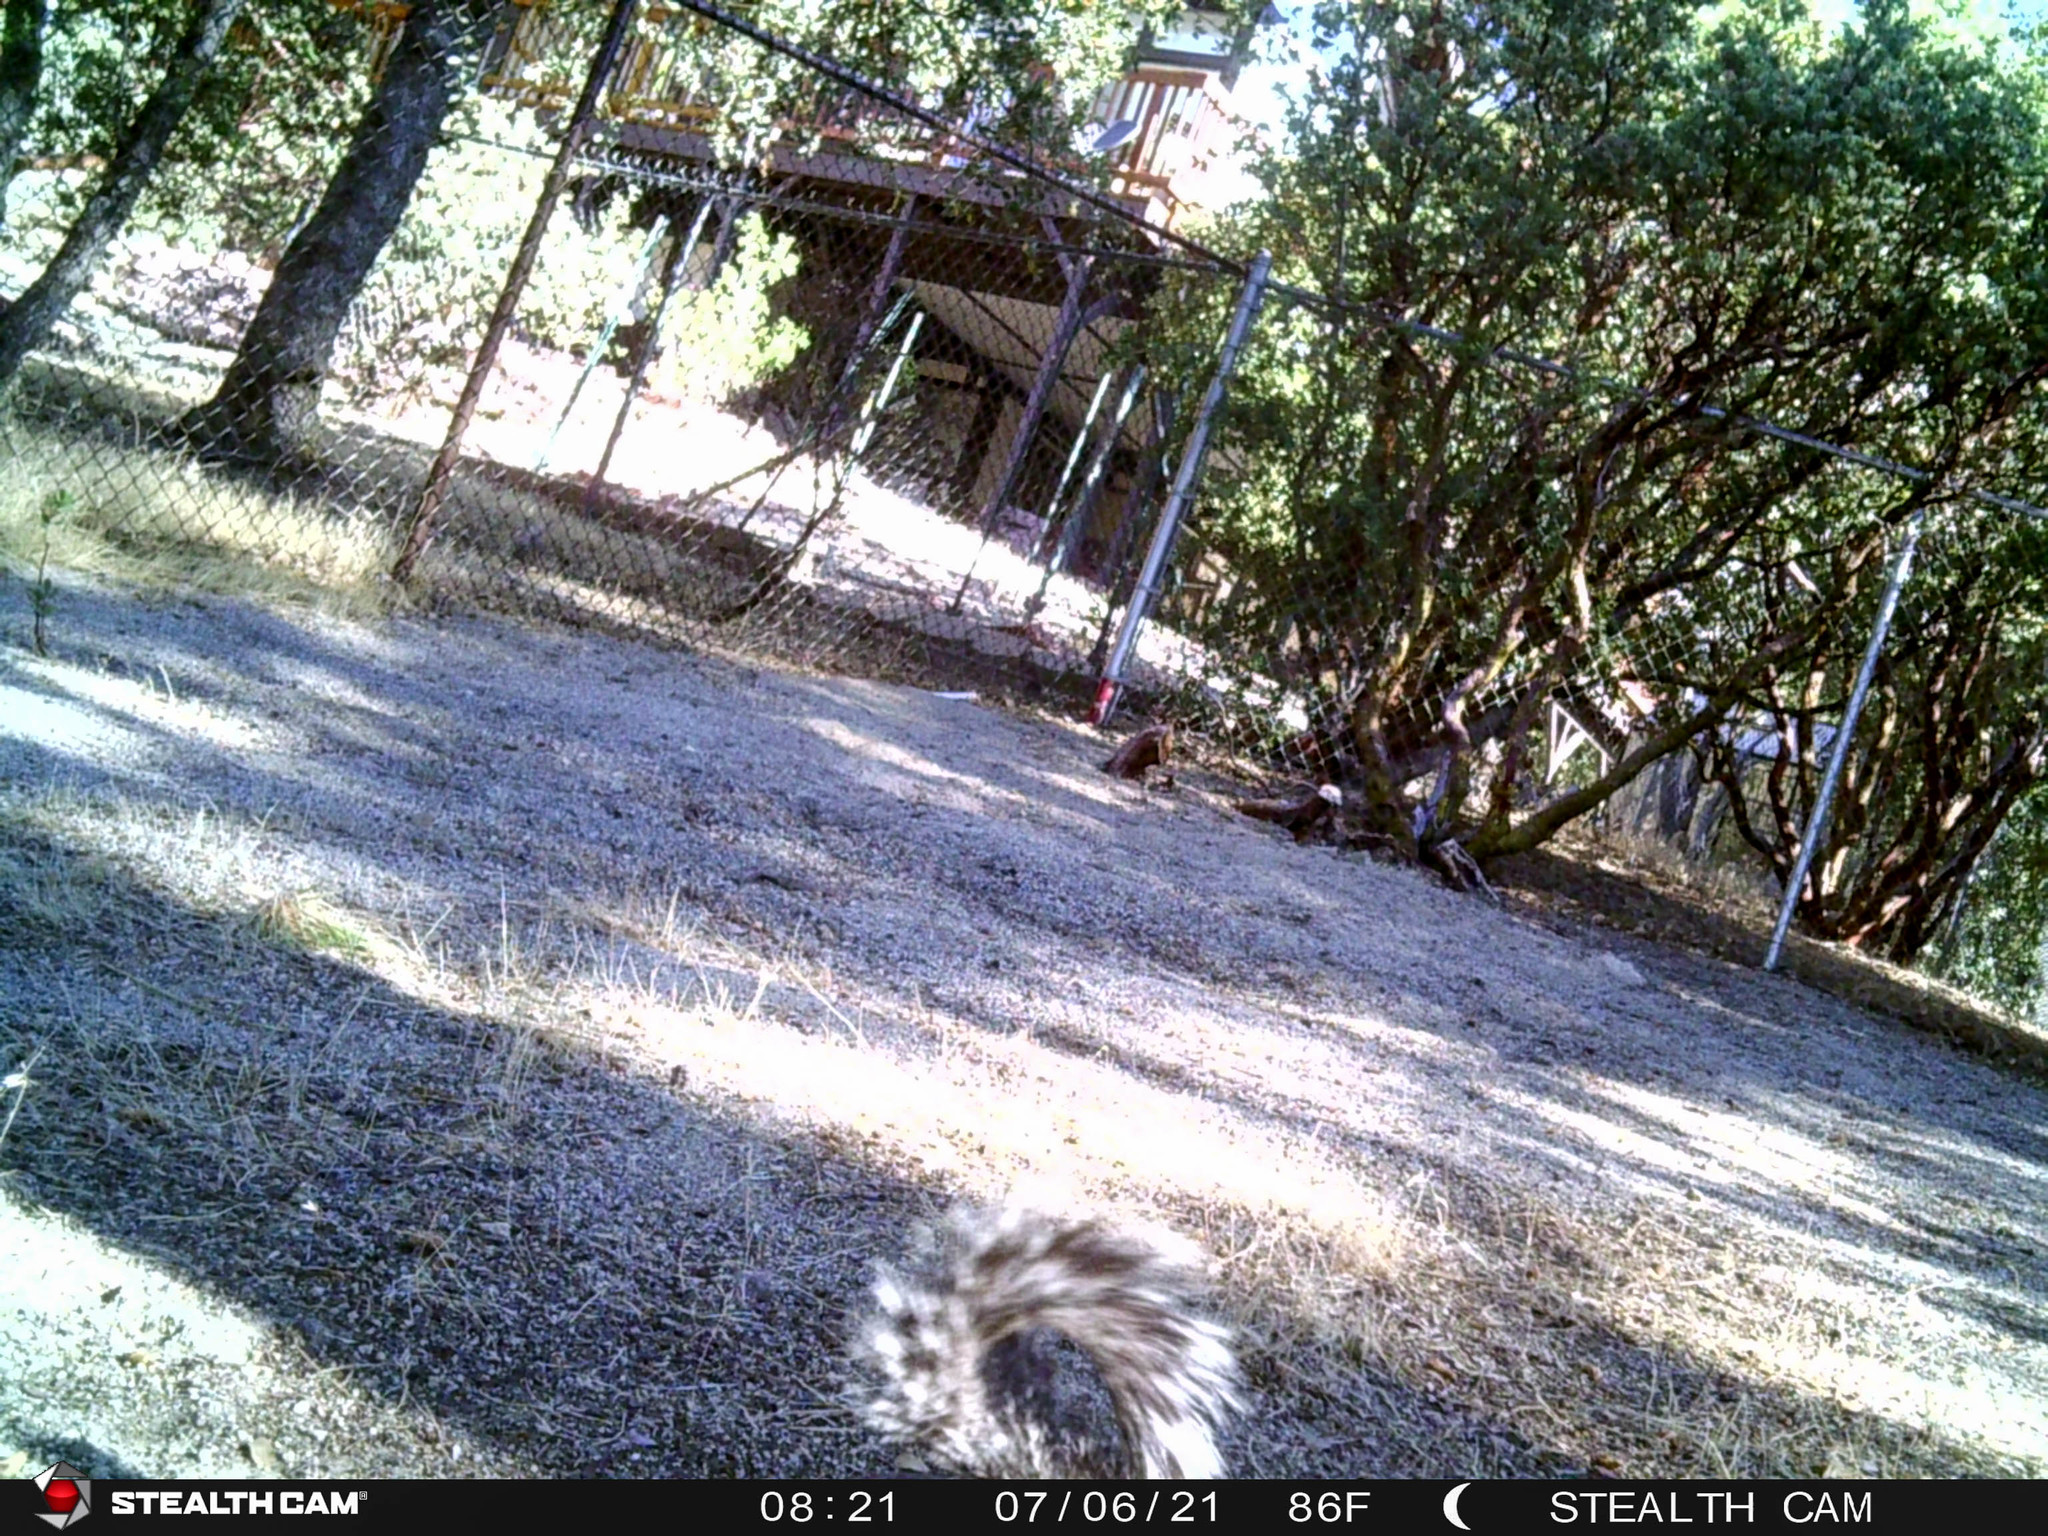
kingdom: Animalia
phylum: Chordata
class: Mammalia
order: Rodentia
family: Sciuridae
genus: Sciurus
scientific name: Sciurus griseus
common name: Western gray squirrel
